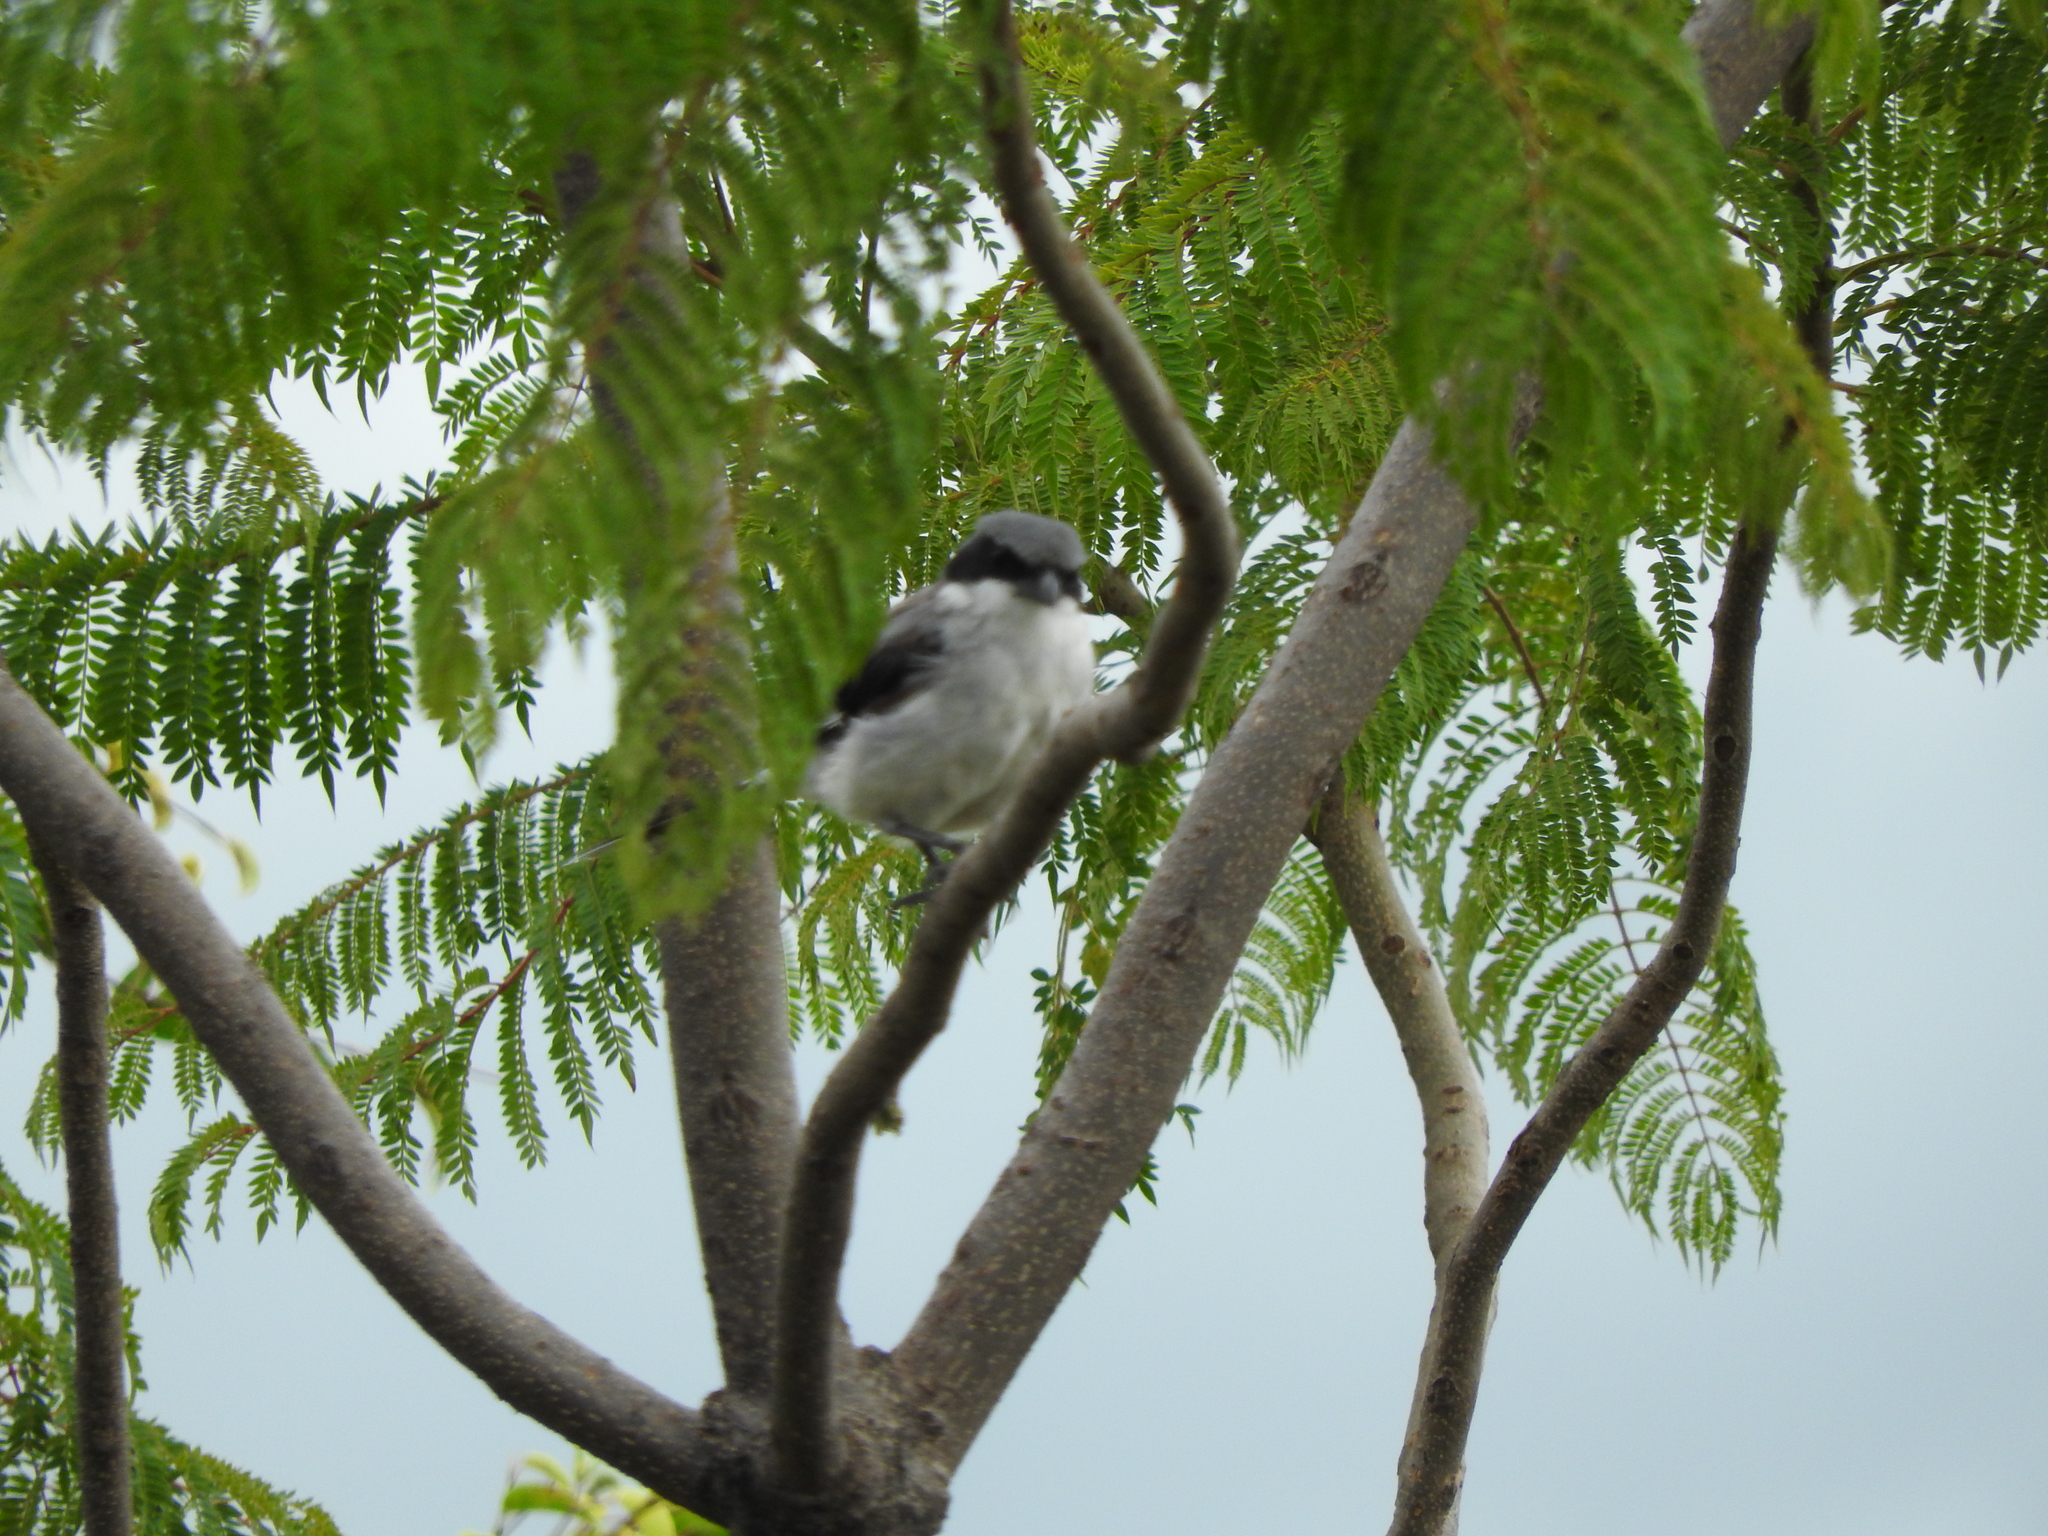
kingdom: Animalia
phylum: Chordata
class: Aves
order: Passeriformes
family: Laniidae
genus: Lanius
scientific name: Lanius ludovicianus
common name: Loggerhead shrike
